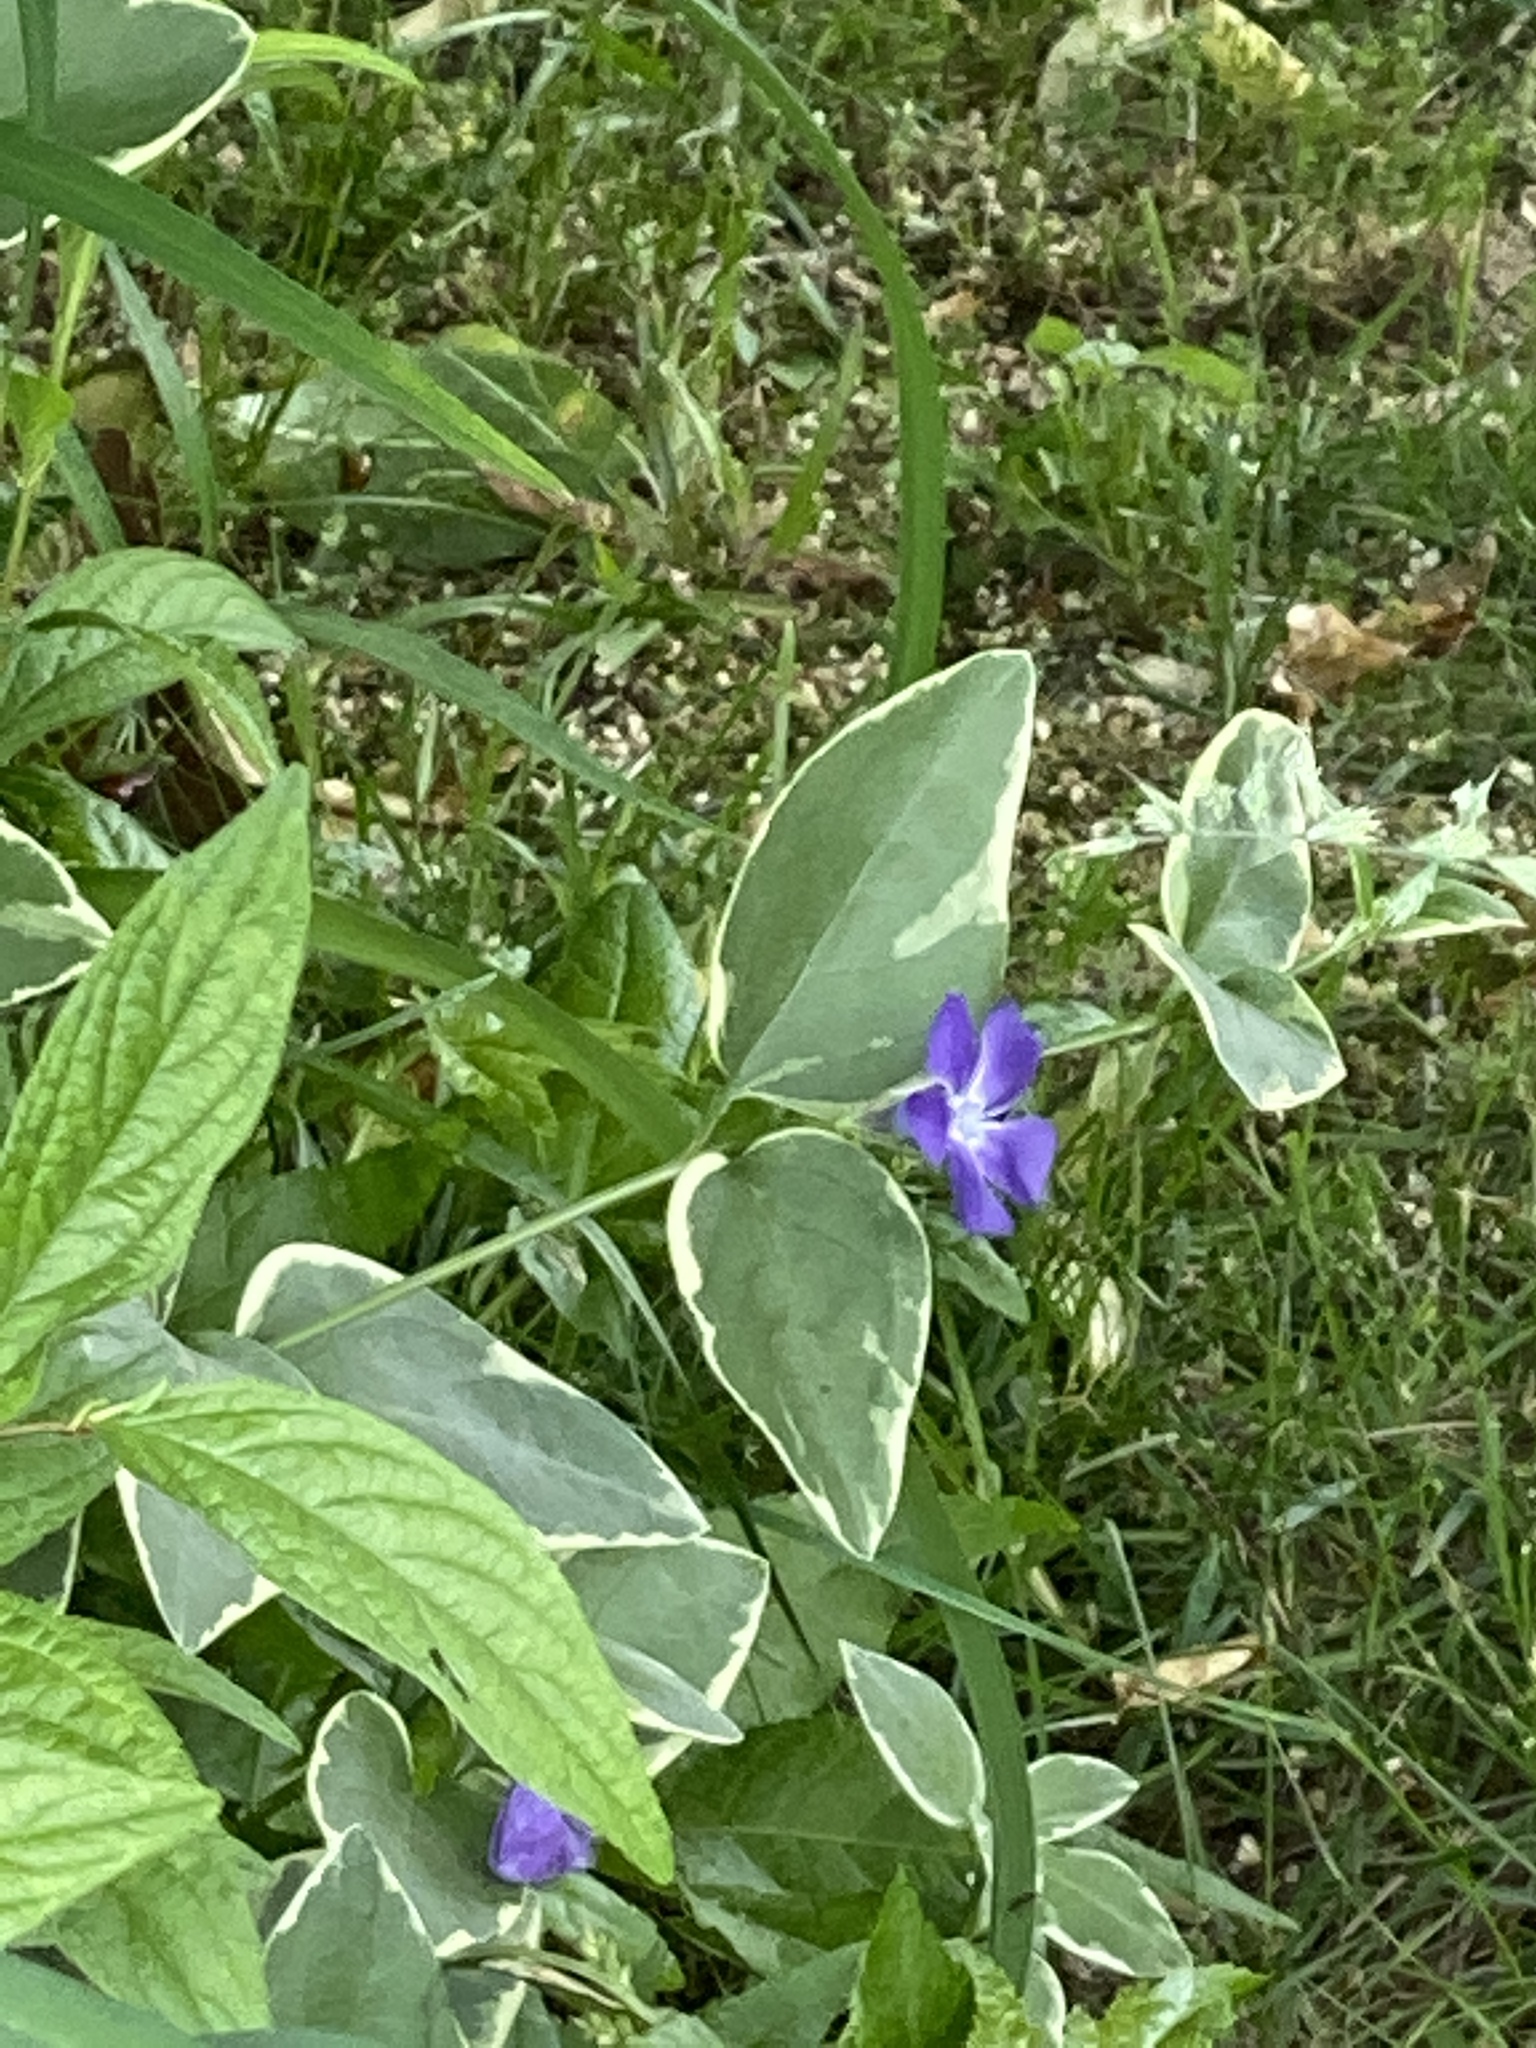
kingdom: Plantae
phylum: Tracheophyta
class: Magnoliopsida
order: Gentianales
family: Apocynaceae
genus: Vinca
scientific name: Vinca major
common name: Greater periwinkle
